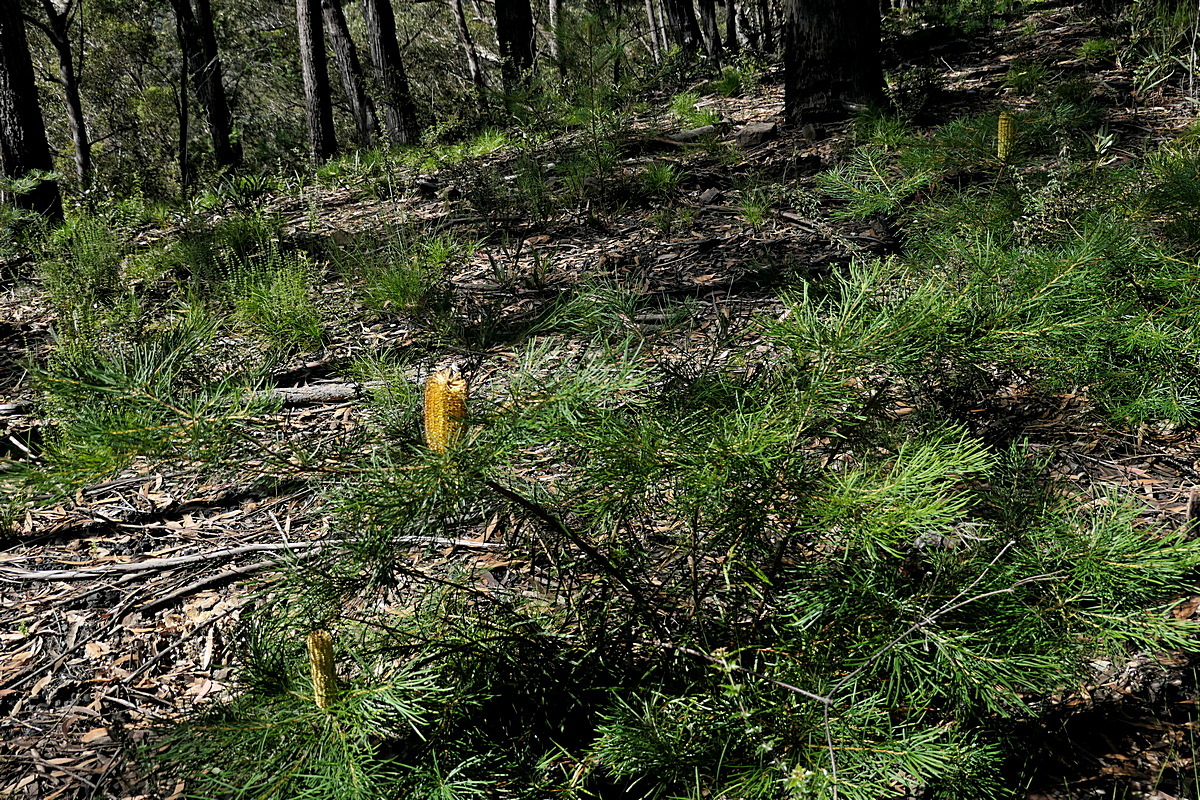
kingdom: Plantae
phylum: Tracheophyta
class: Magnoliopsida
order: Proteales
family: Proteaceae
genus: Banksia
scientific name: Banksia spinulosa
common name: Hairpin banksia
